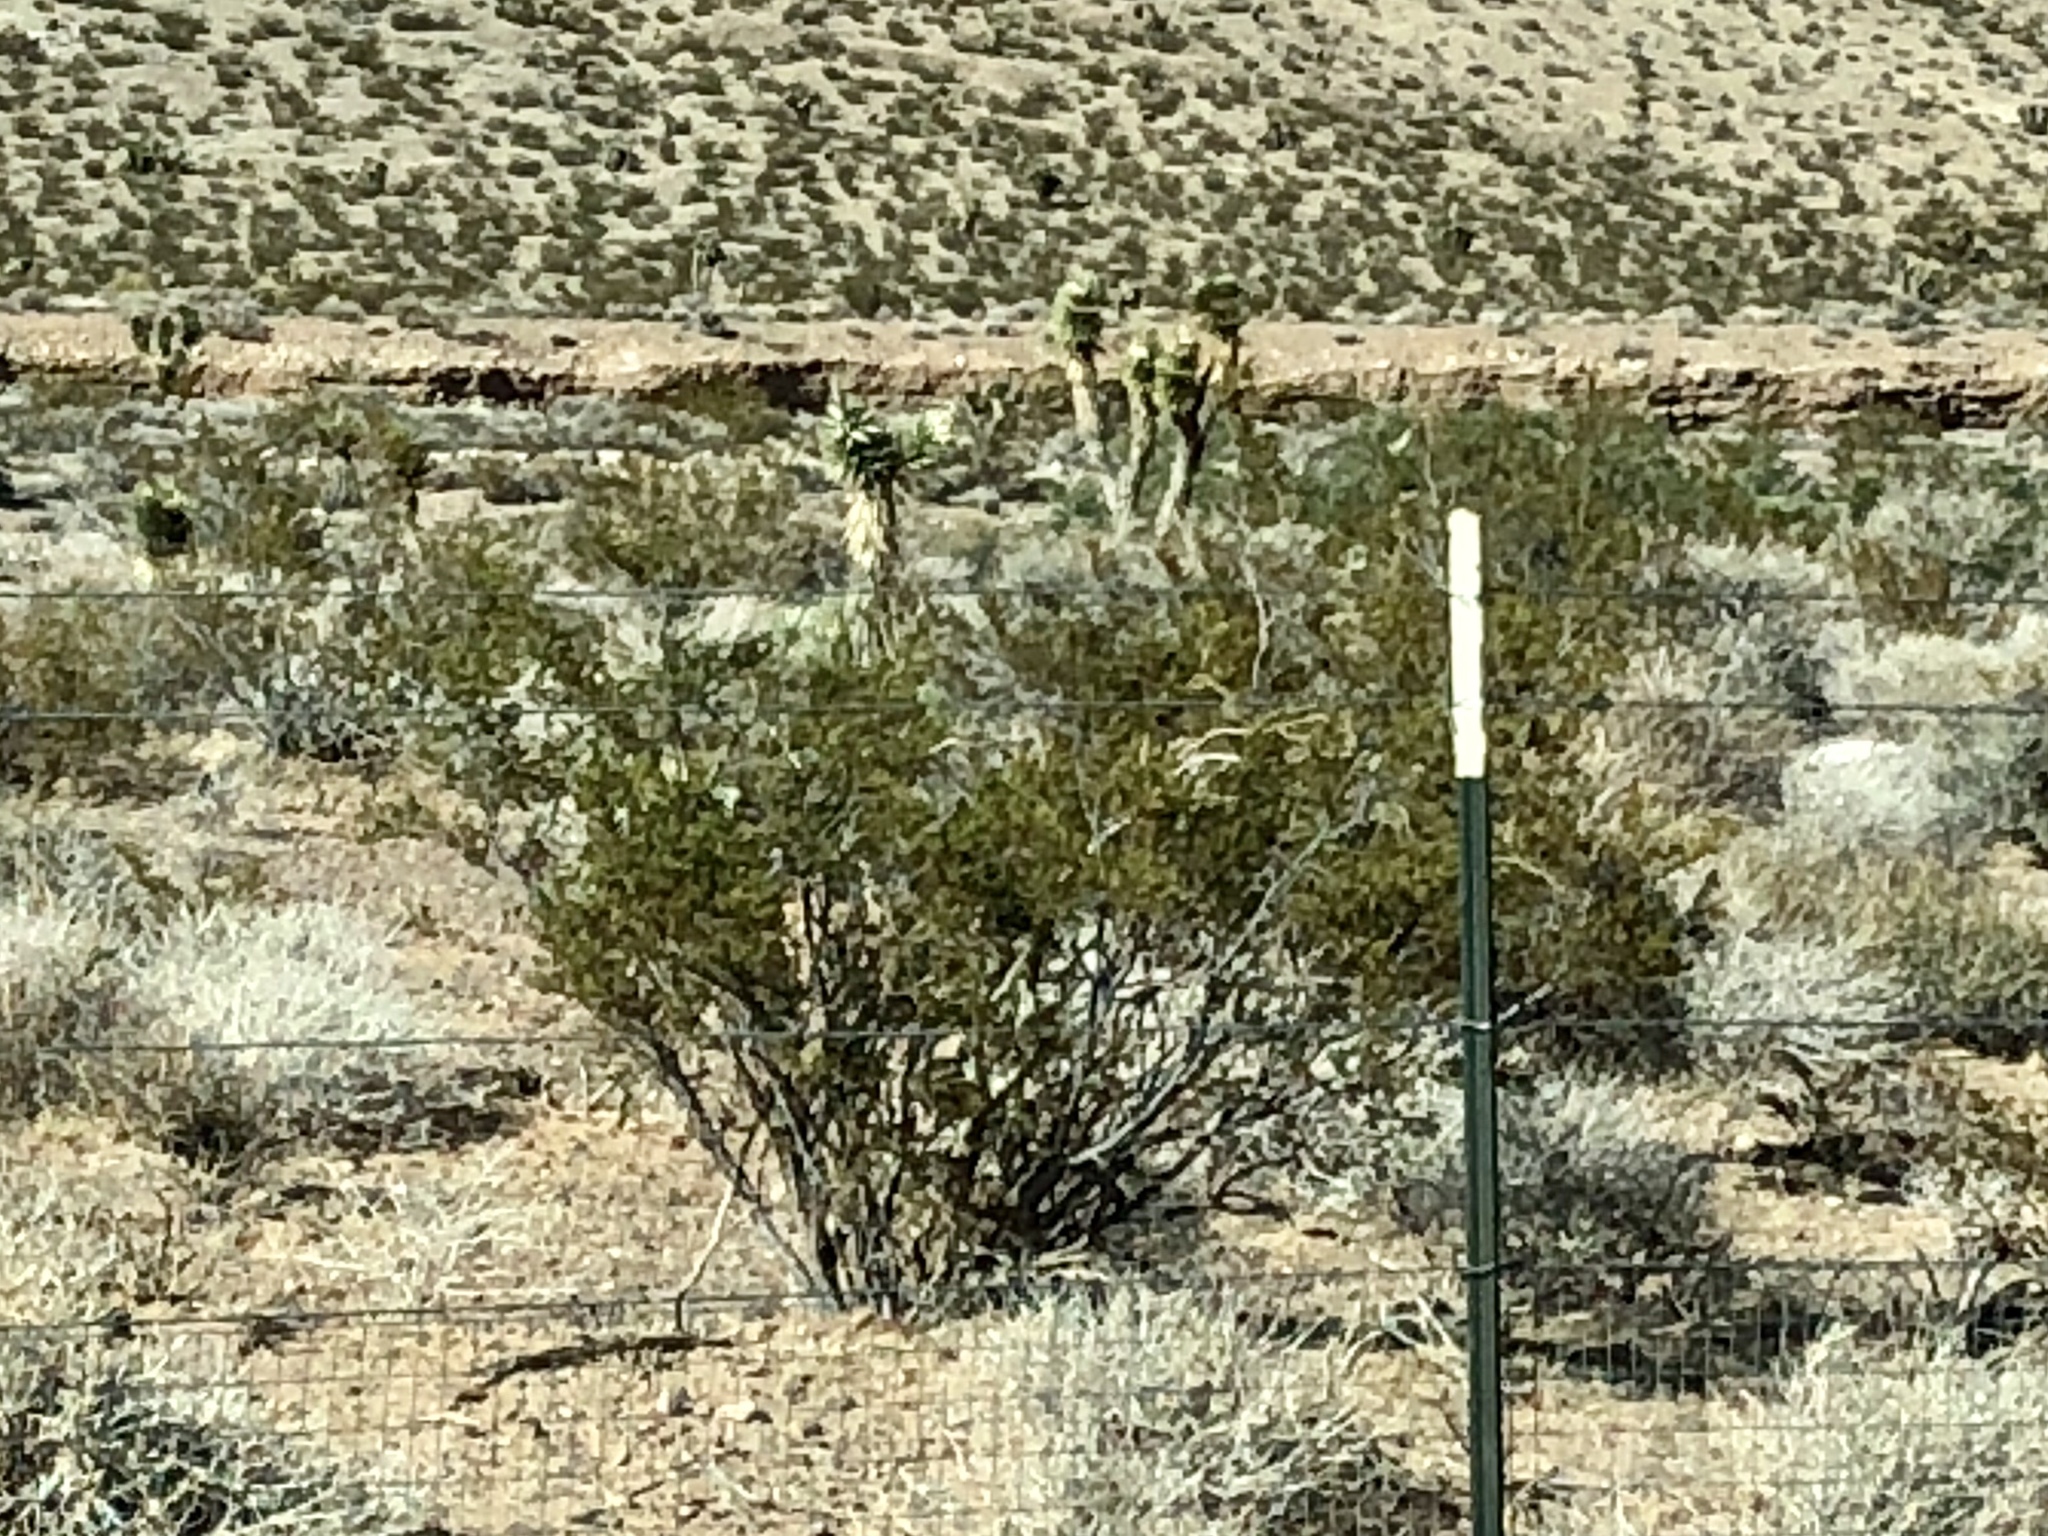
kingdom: Plantae
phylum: Tracheophyta
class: Magnoliopsida
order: Zygophyllales
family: Zygophyllaceae
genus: Larrea
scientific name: Larrea tridentata
